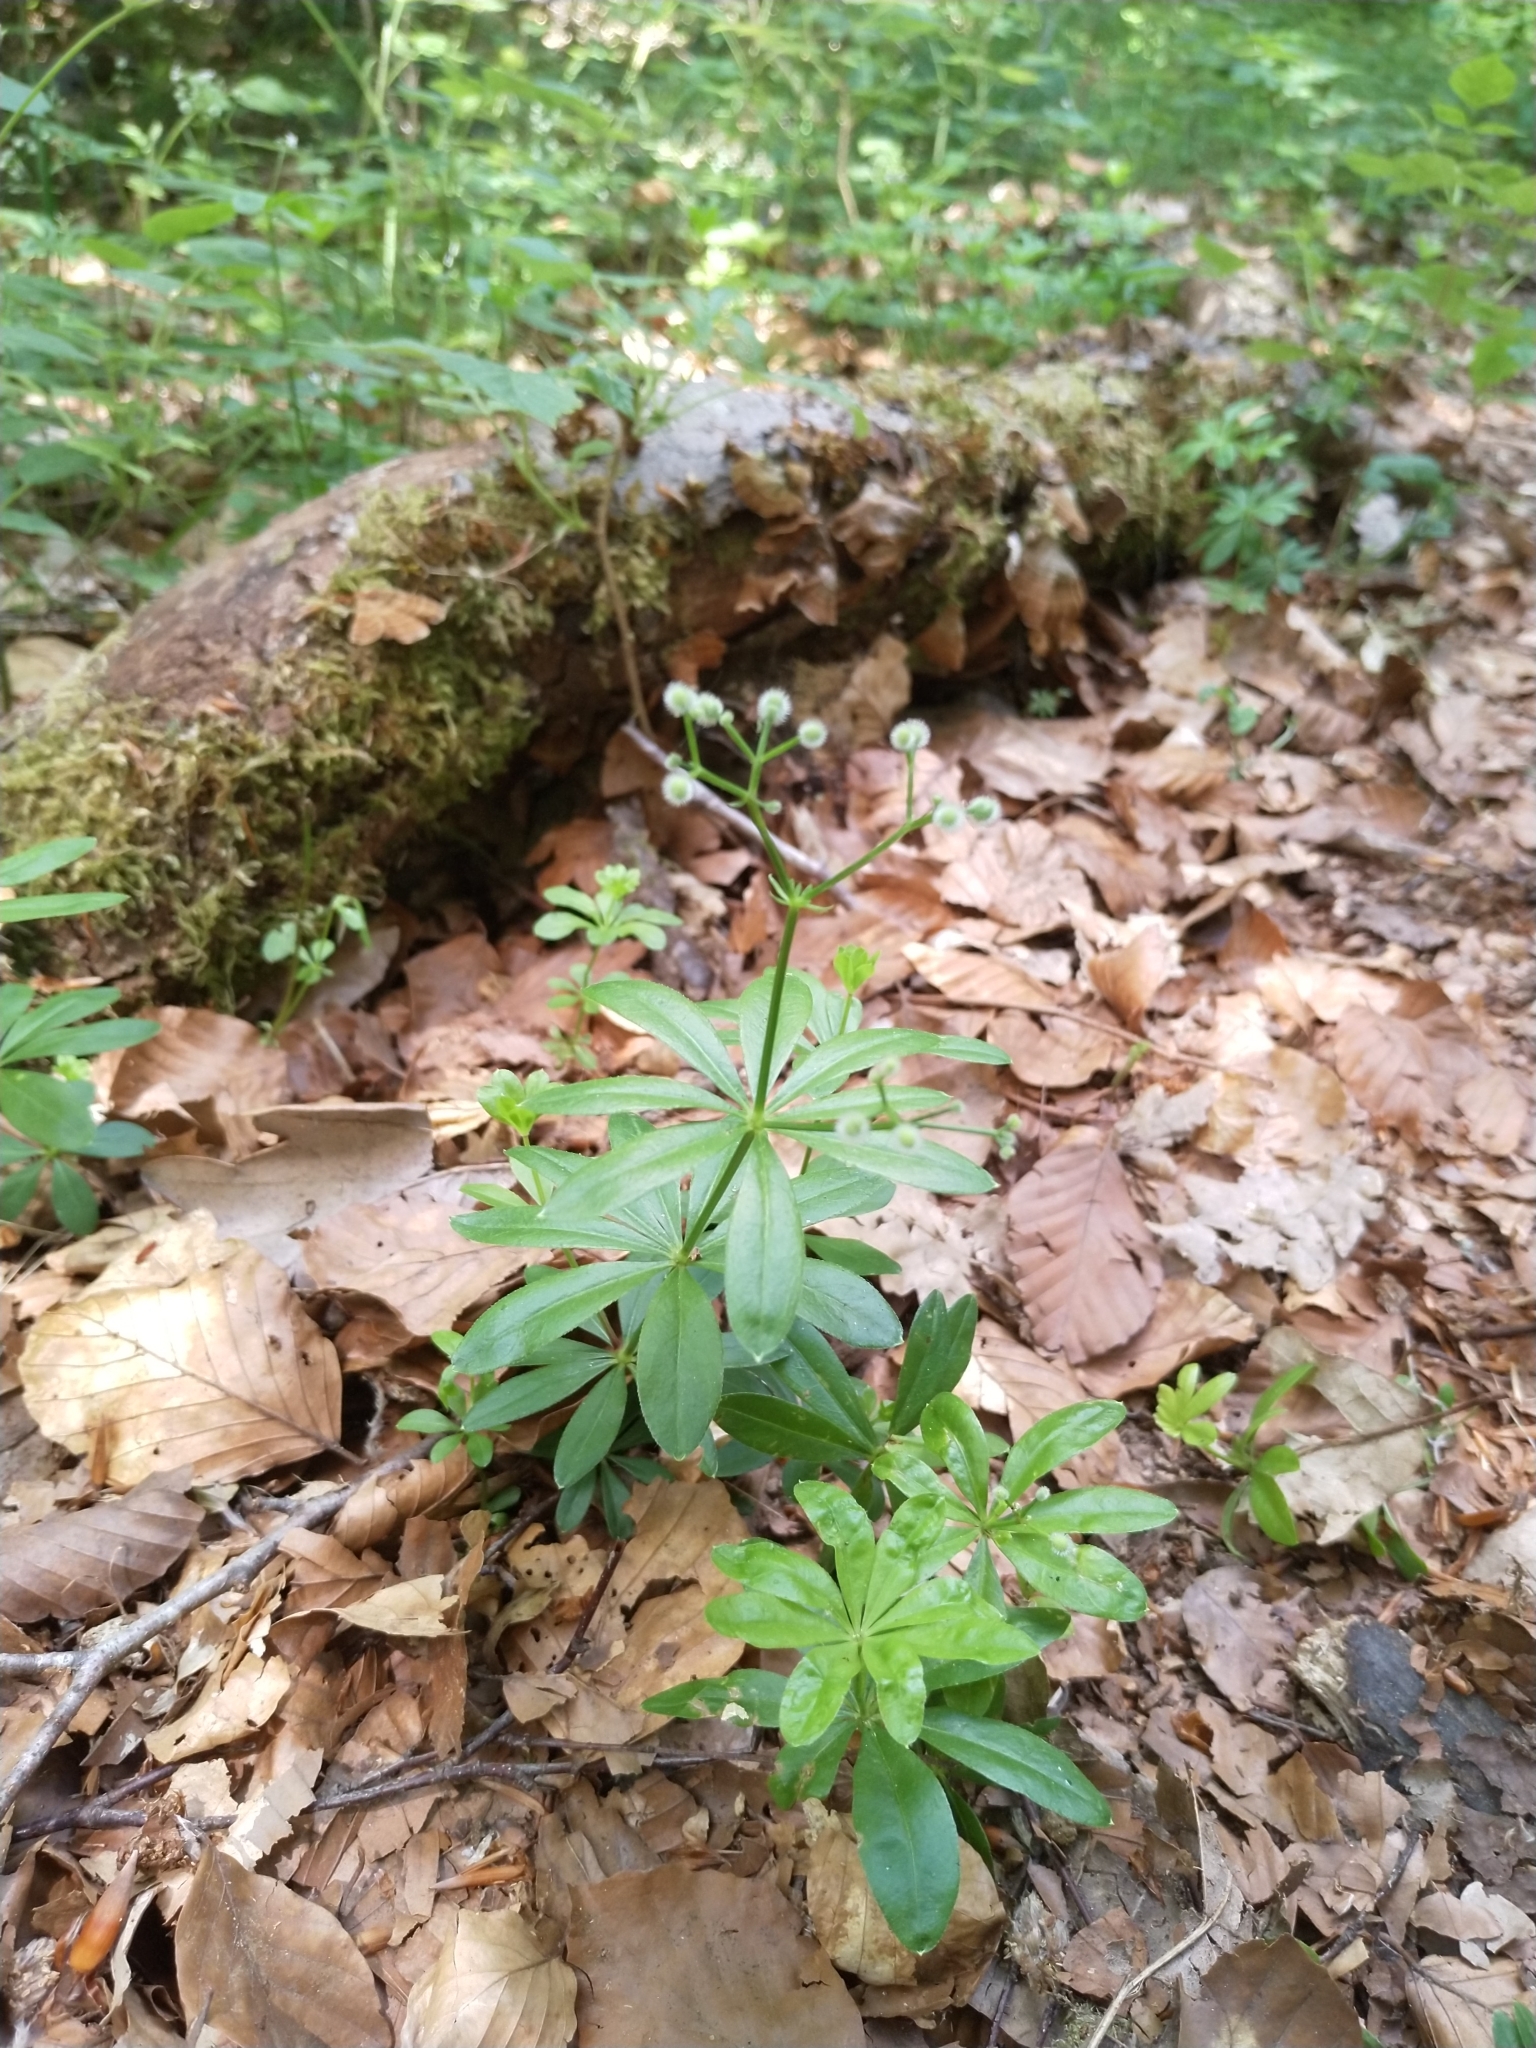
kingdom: Plantae
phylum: Tracheophyta
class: Magnoliopsida
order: Gentianales
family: Rubiaceae
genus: Galium
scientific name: Galium odoratum
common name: Sweet woodruff
